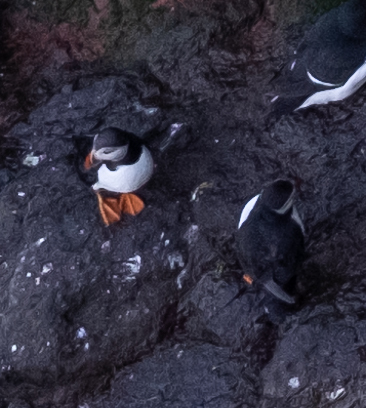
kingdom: Animalia
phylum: Chordata
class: Aves
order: Charadriiformes
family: Alcidae
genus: Fratercula
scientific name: Fratercula arctica
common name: Atlantic puffin
